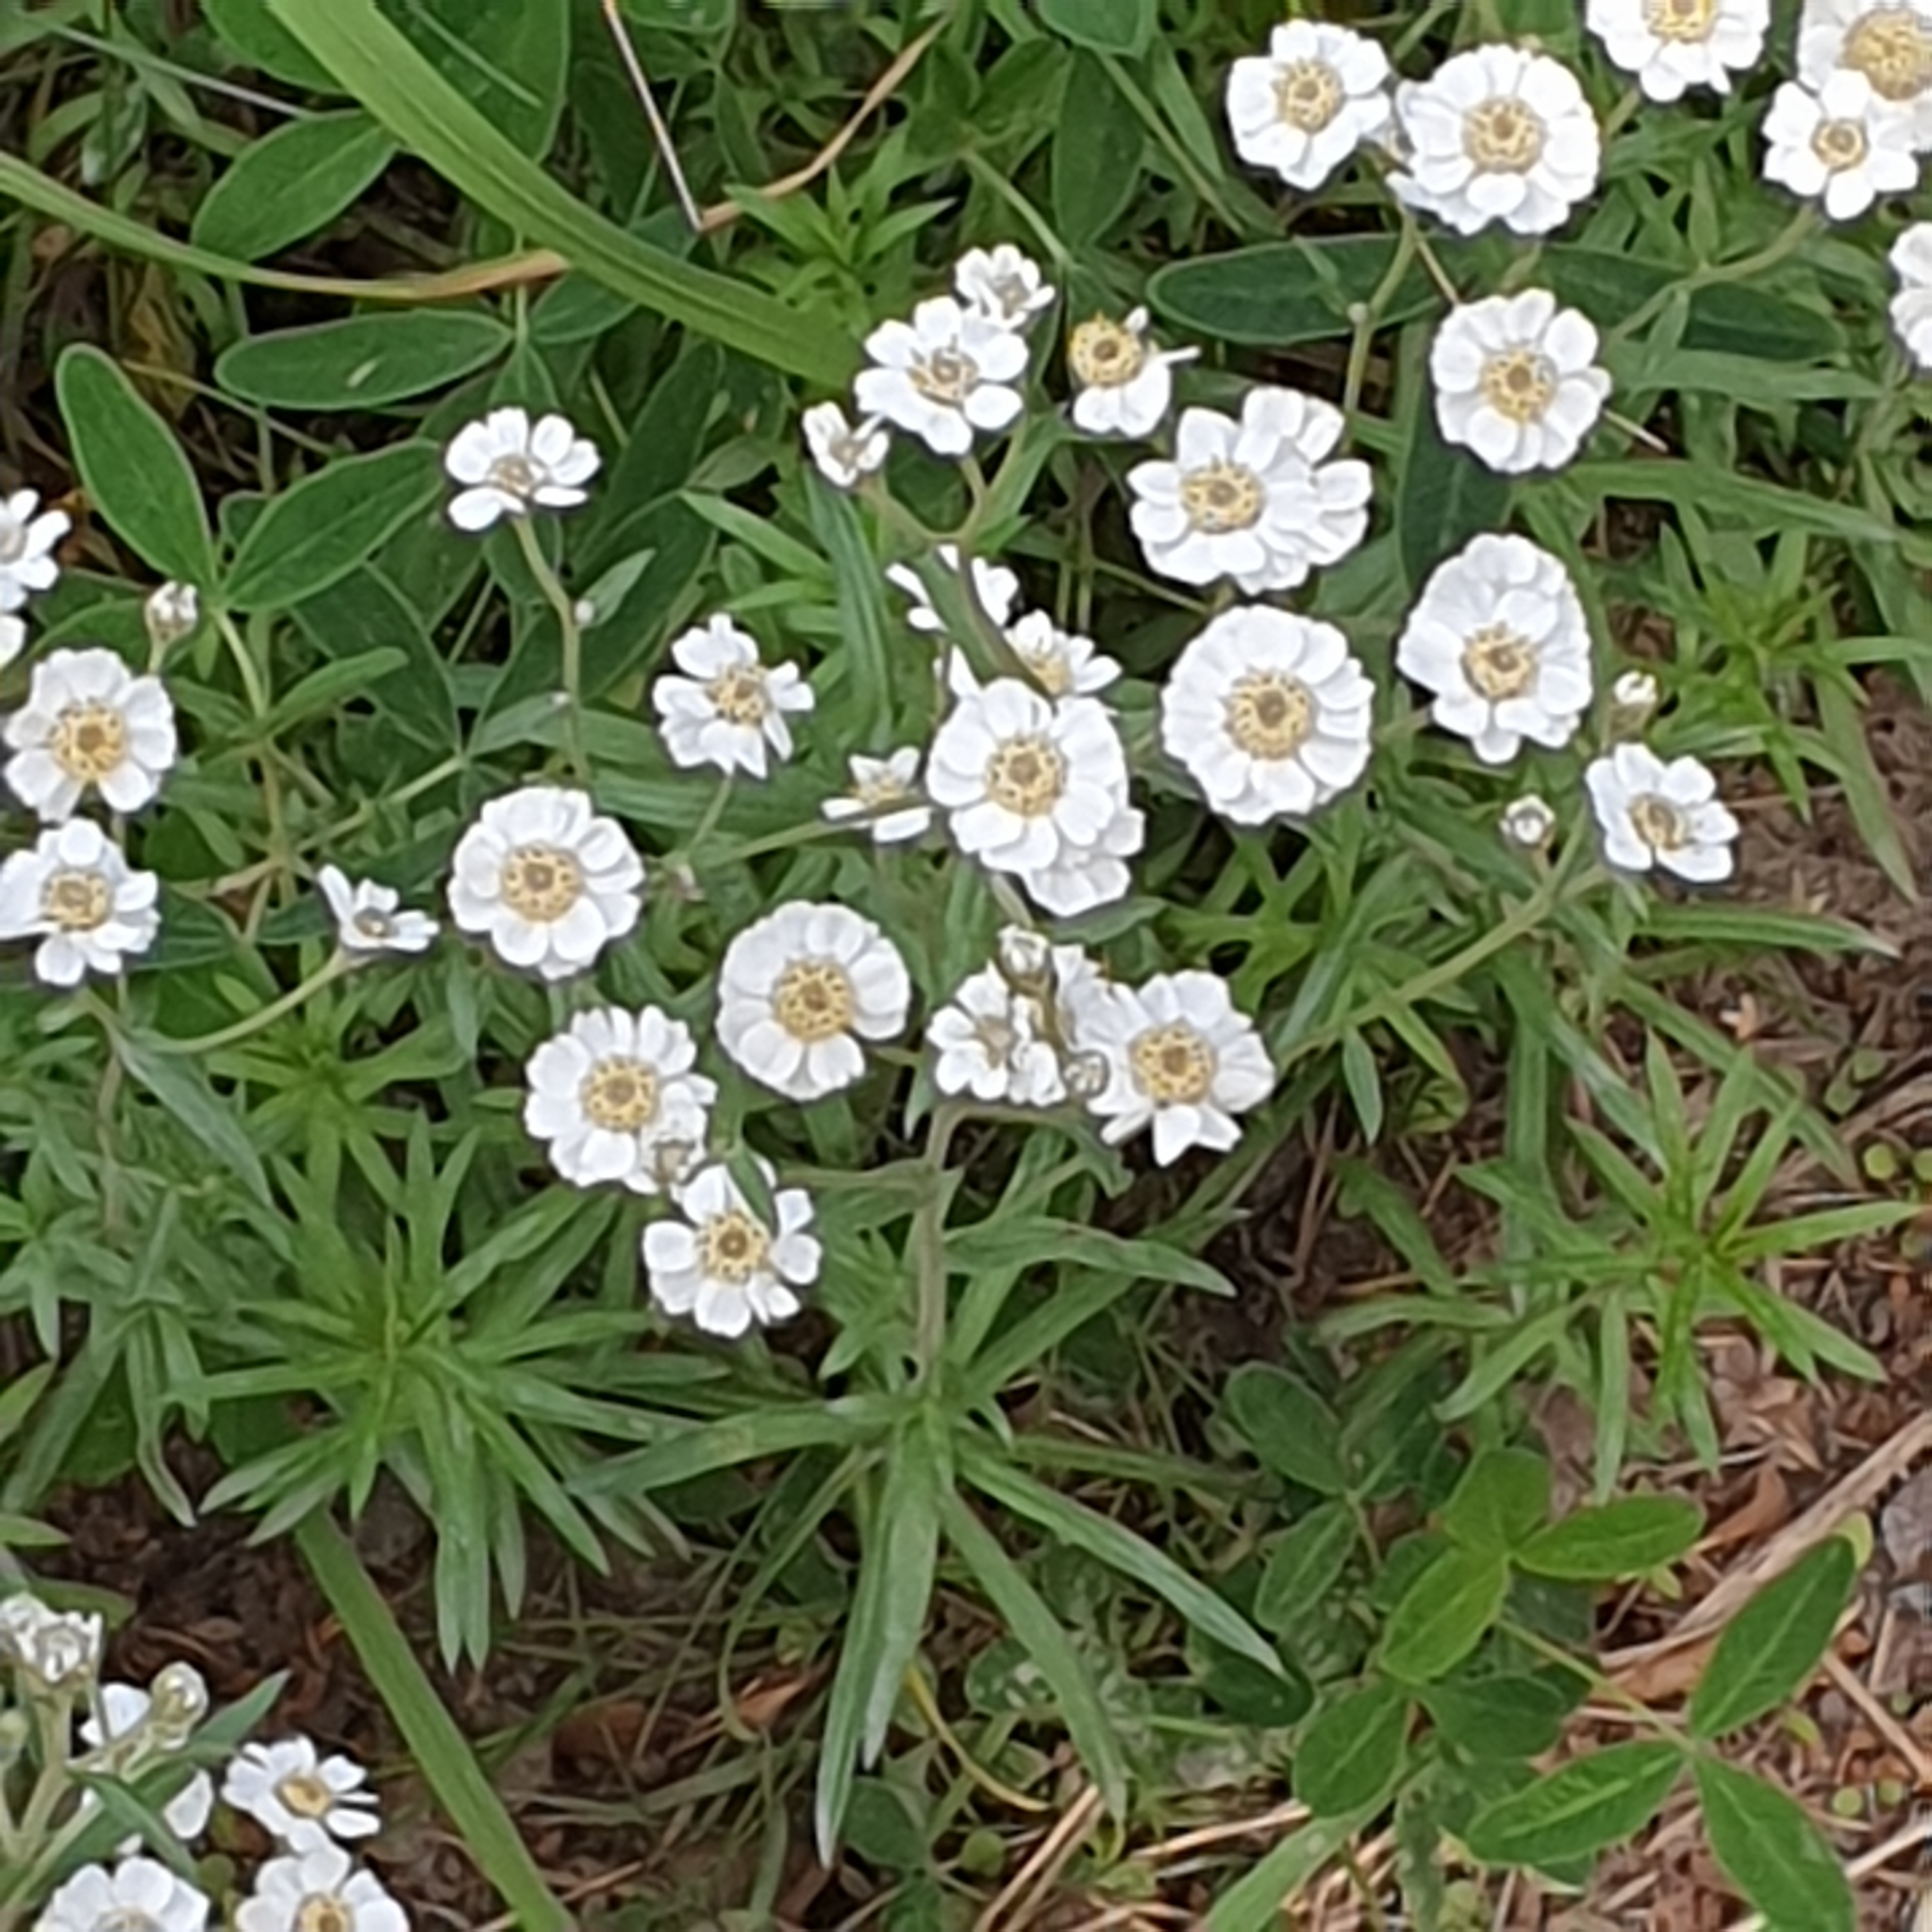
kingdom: Plantae
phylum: Tracheophyta
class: Magnoliopsida
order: Asterales
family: Asteraceae
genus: Achillea
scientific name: Achillea ptarmica
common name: Sneezeweed
